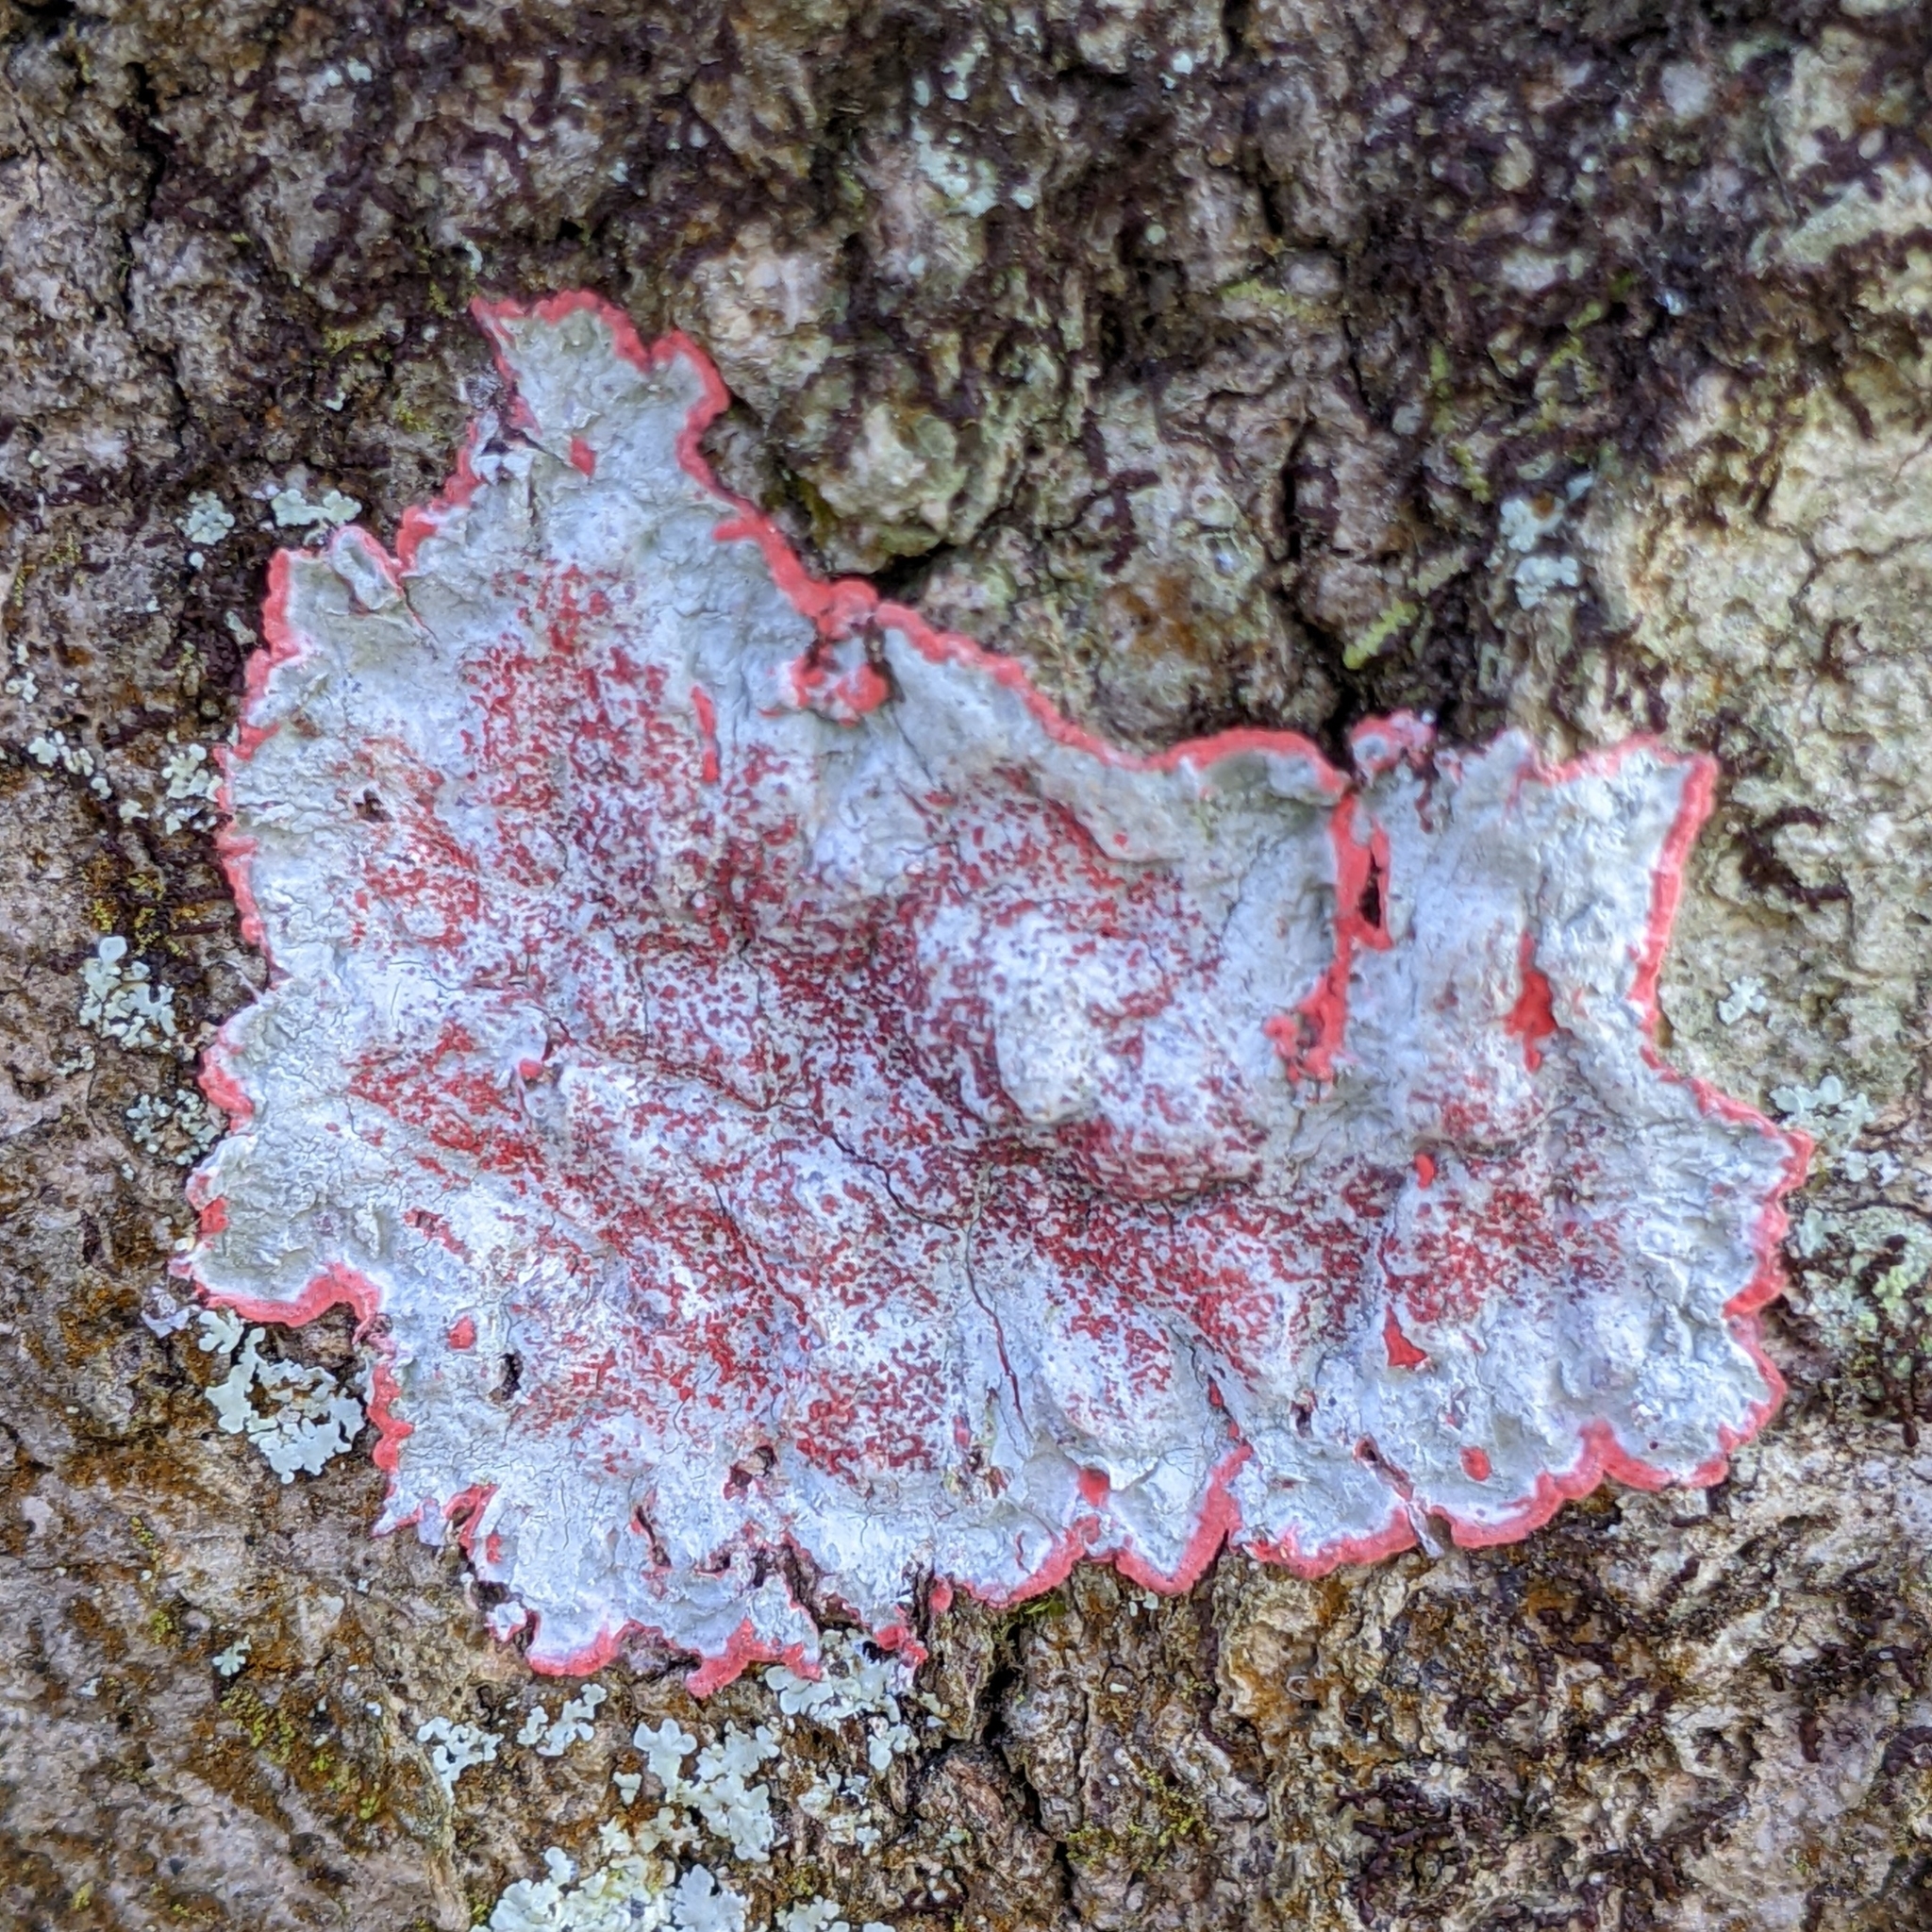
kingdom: Fungi
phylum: Ascomycota
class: Arthoniomycetes
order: Arthoniales
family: Arthoniaceae
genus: Herpothallon
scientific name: Herpothallon rubrocinctum
